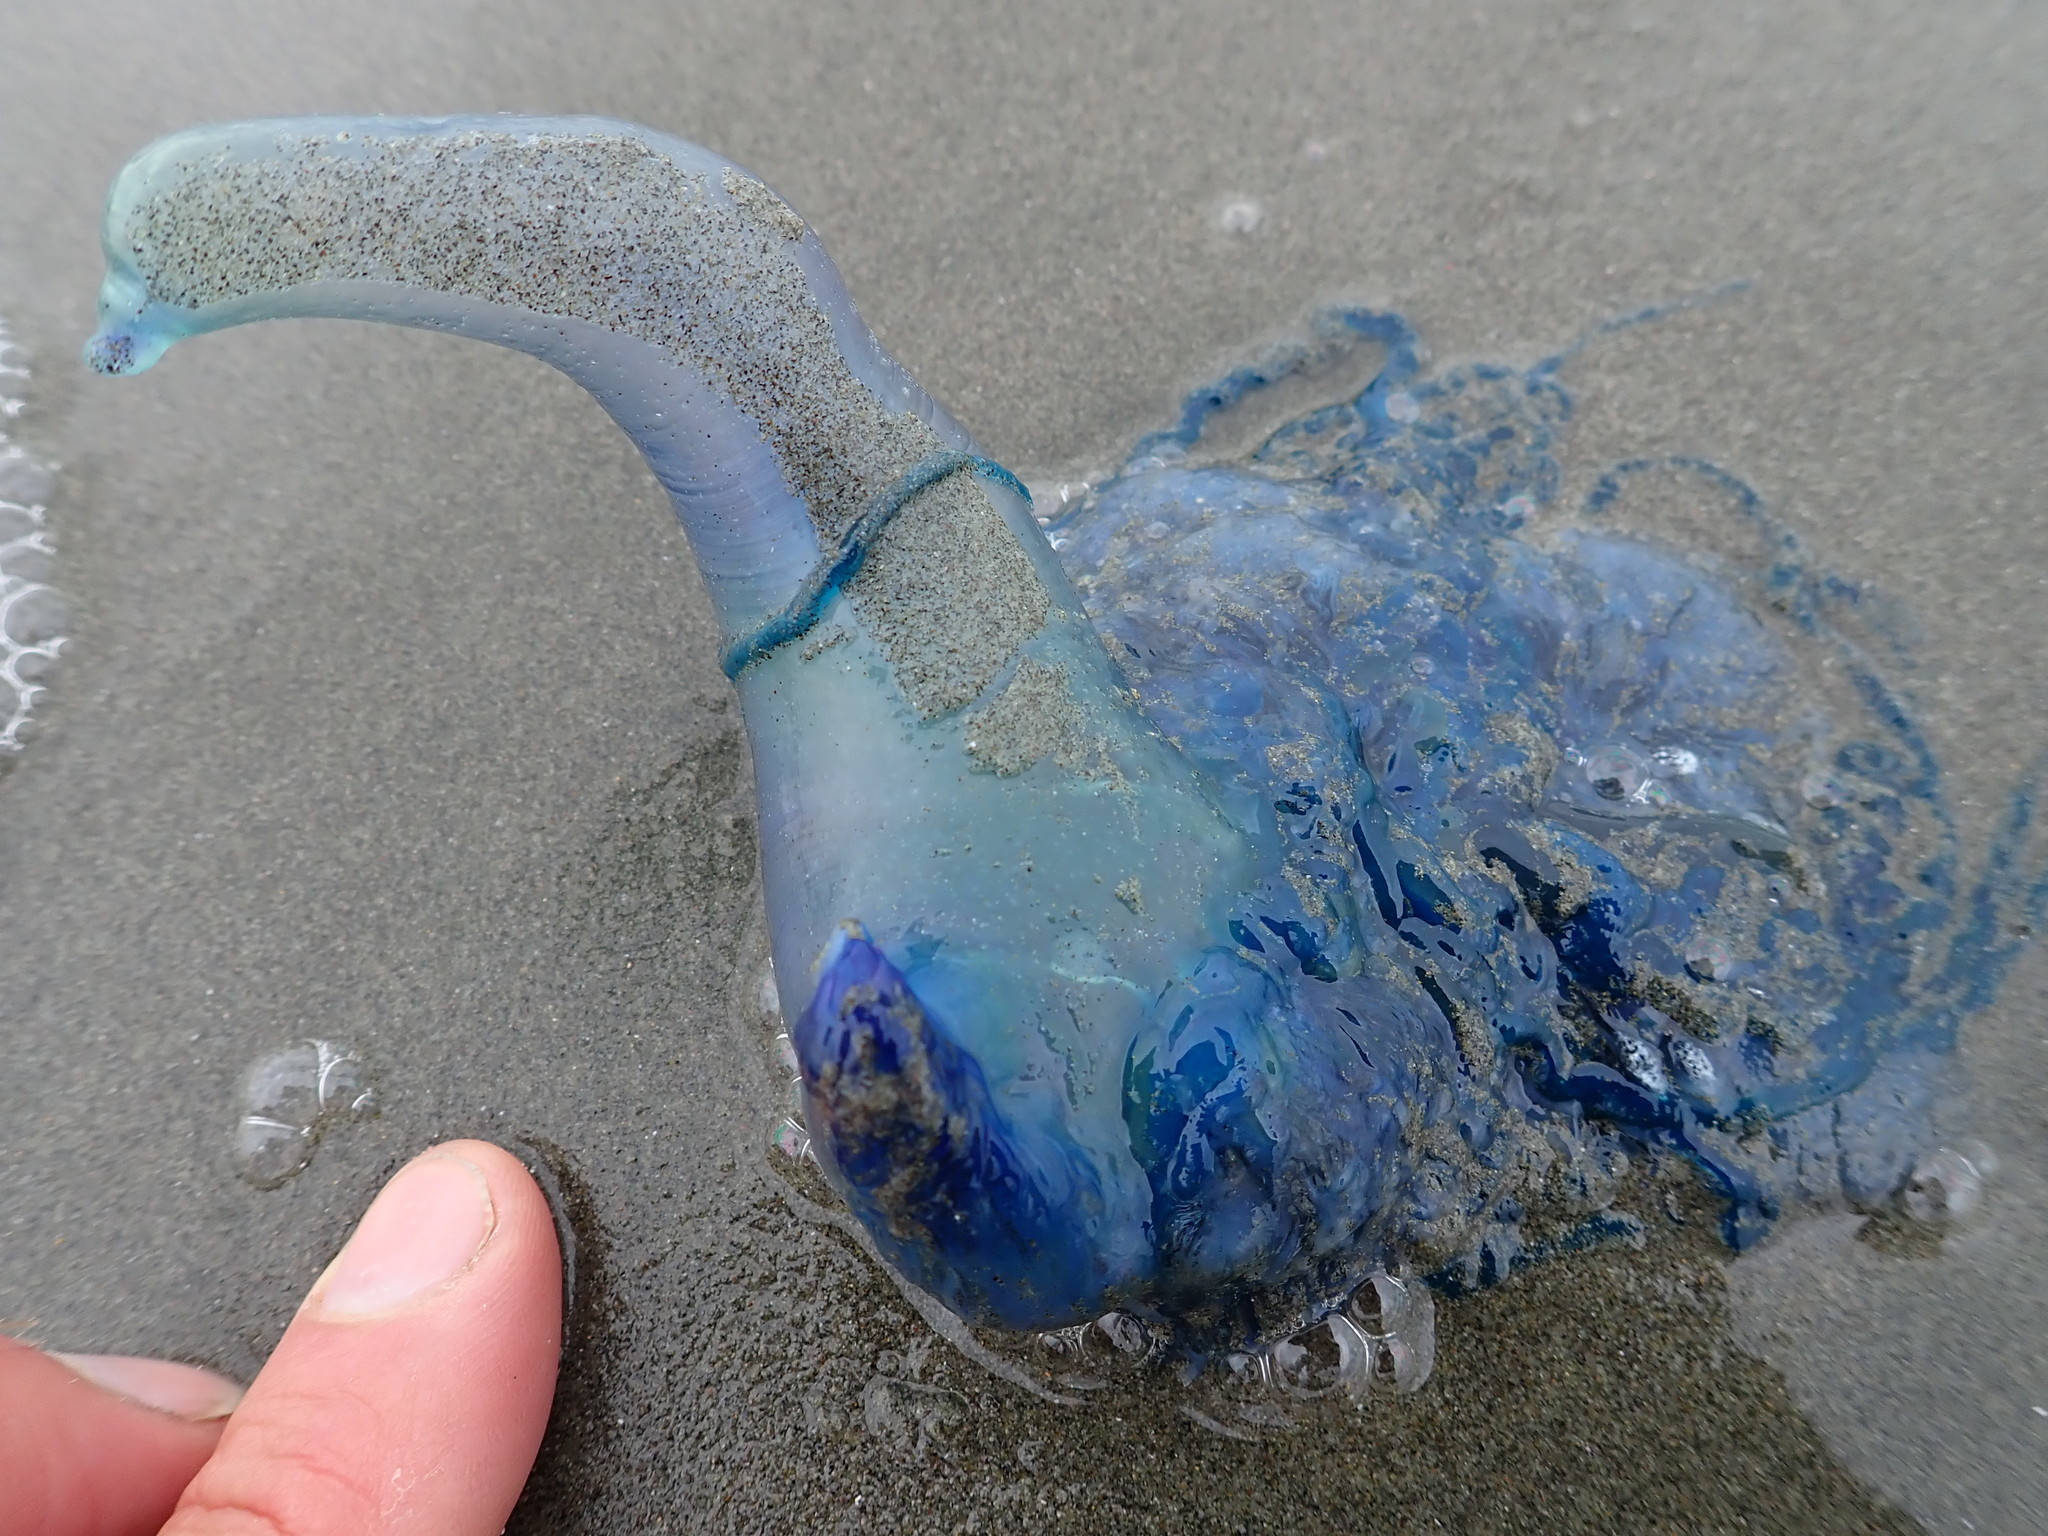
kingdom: Animalia
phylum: Cnidaria
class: Hydrozoa
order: Siphonophorae
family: Physaliidae
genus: Physalia
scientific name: Physalia physalis
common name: Portuguese man-of-war
